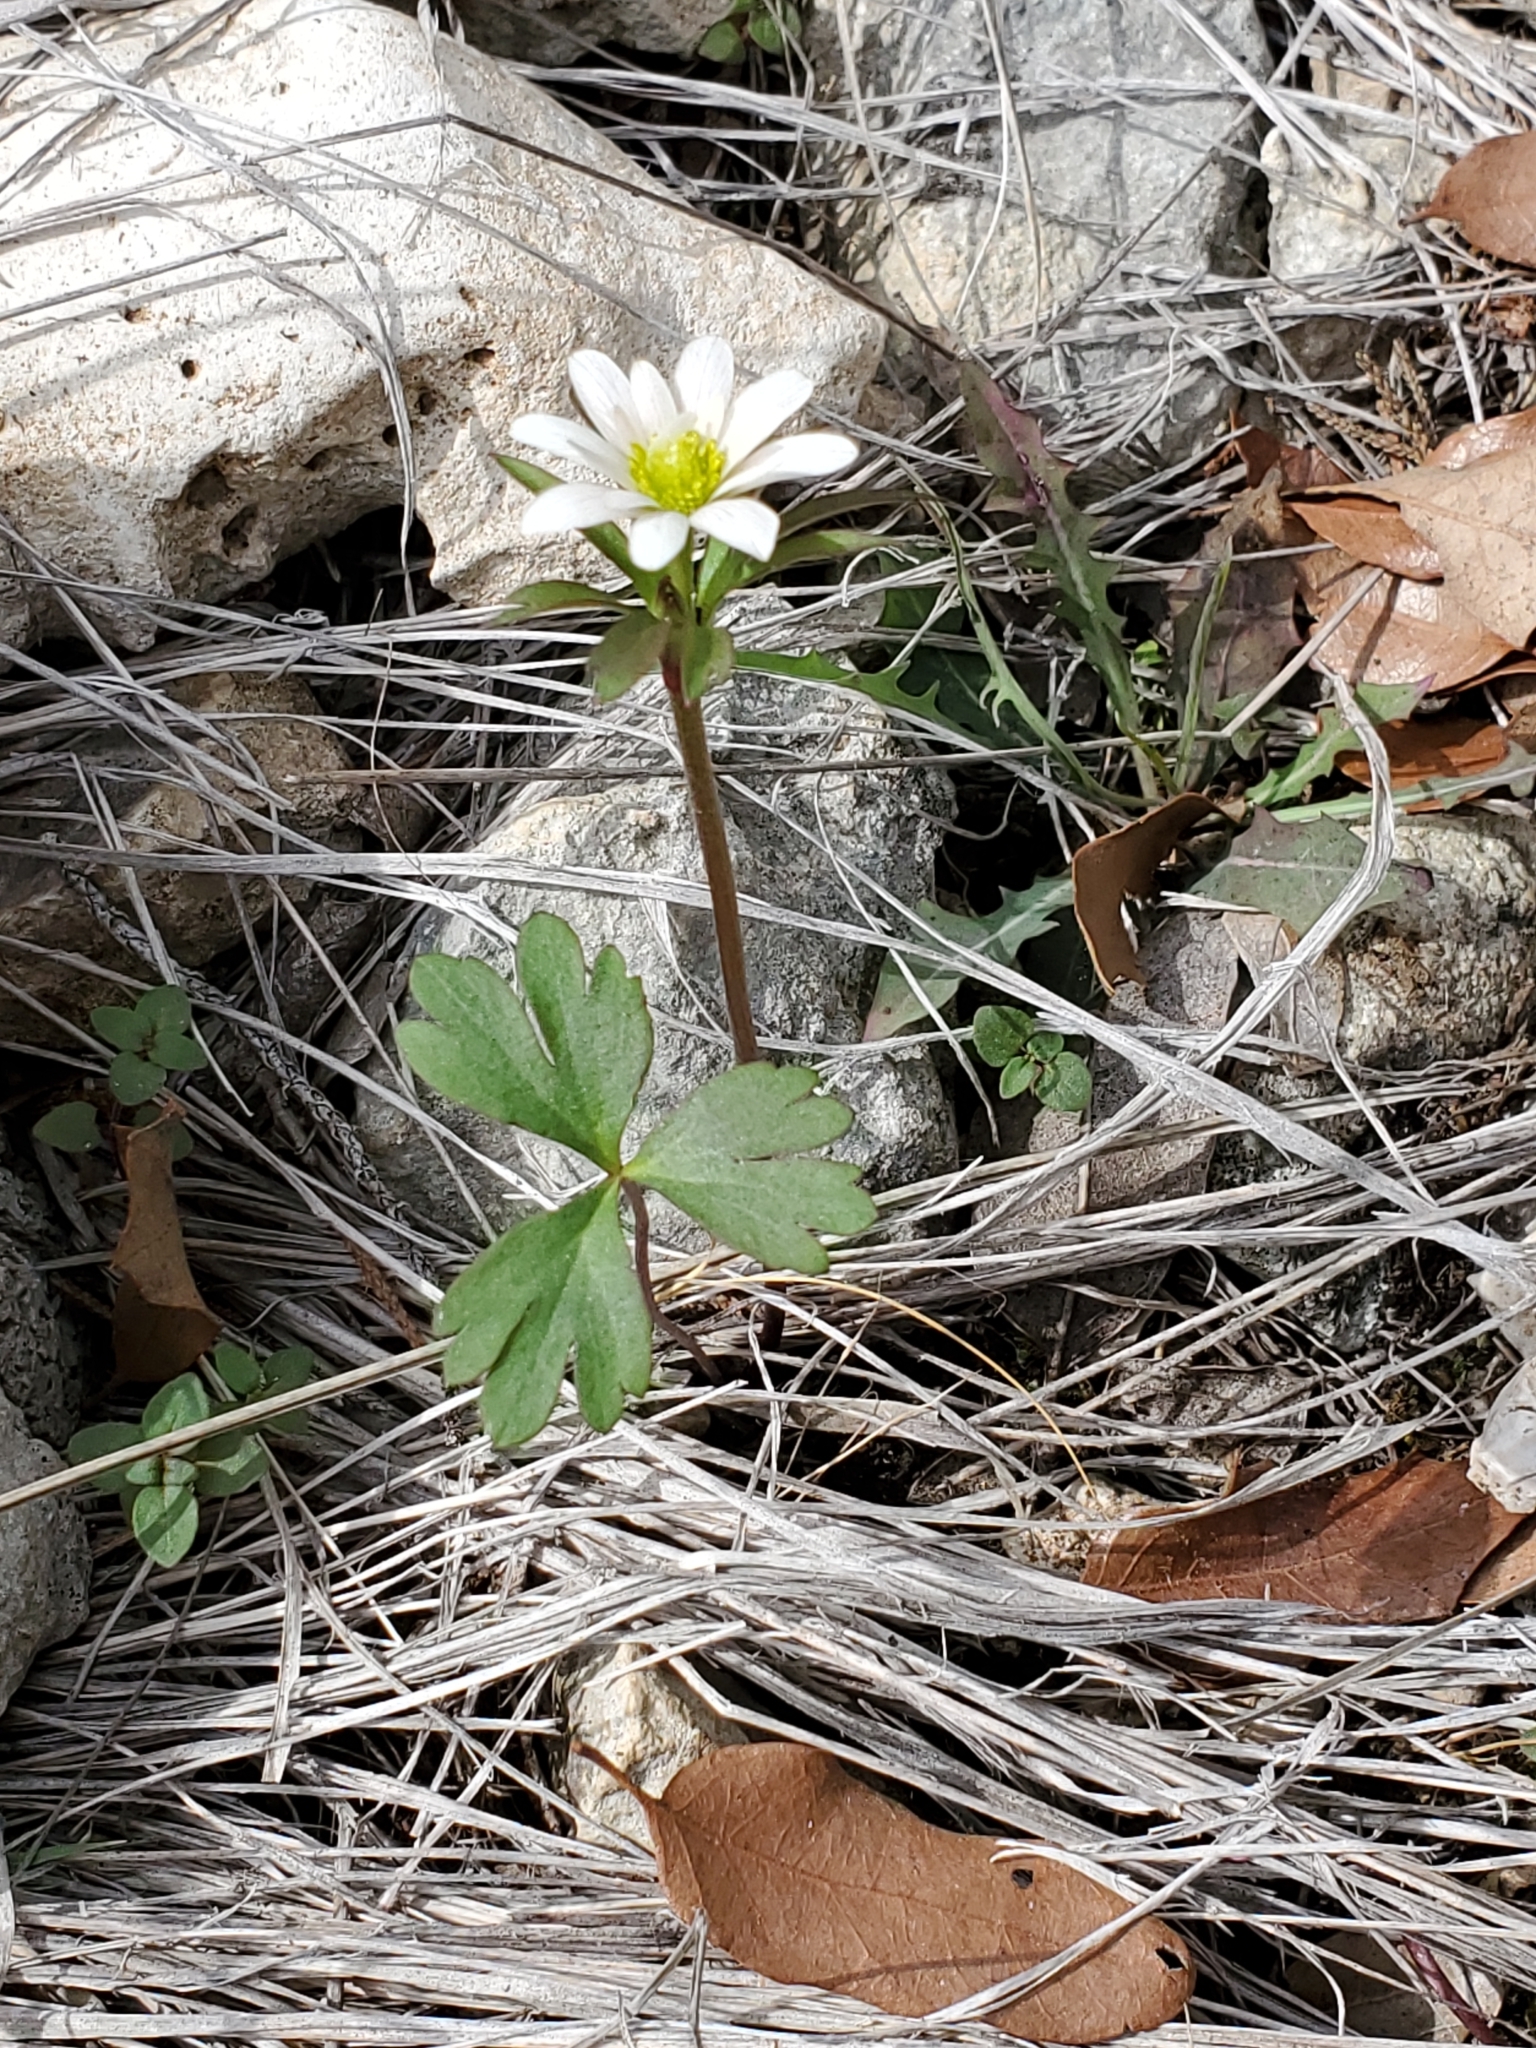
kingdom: Plantae
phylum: Tracheophyta
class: Magnoliopsida
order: Ranunculales
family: Ranunculaceae
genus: Anemone
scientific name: Anemone edwardsiana
